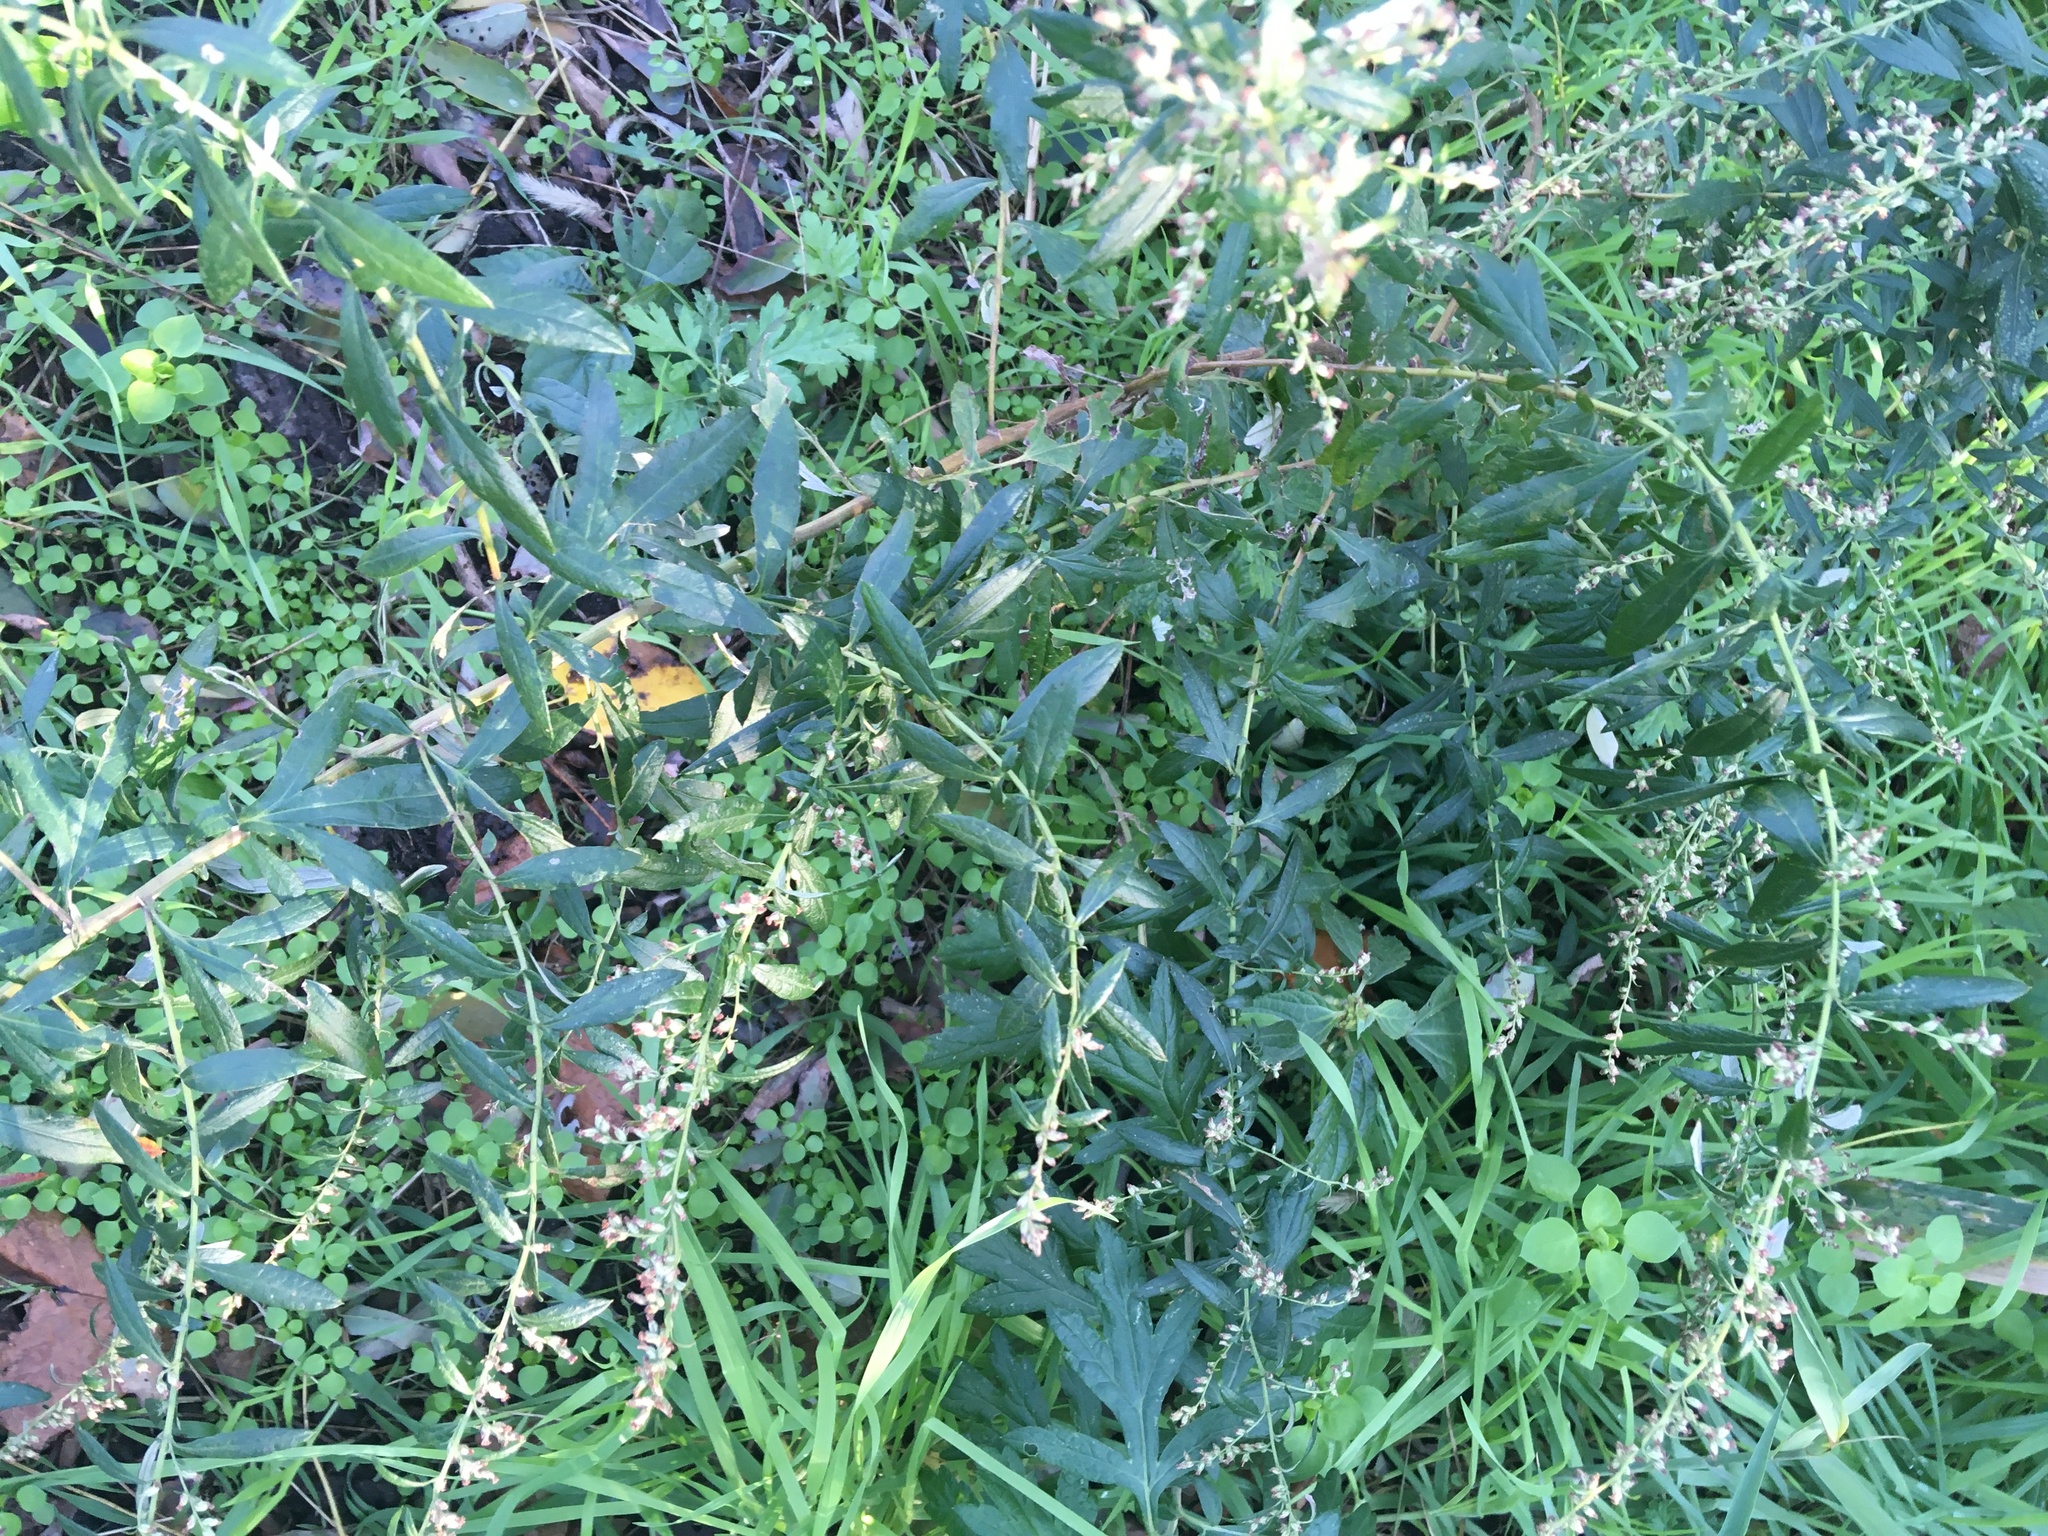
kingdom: Plantae
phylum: Tracheophyta
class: Magnoliopsida
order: Asterales
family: Asteraceae
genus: Artemisia
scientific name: Artemisia vulgaris
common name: Mugwort
